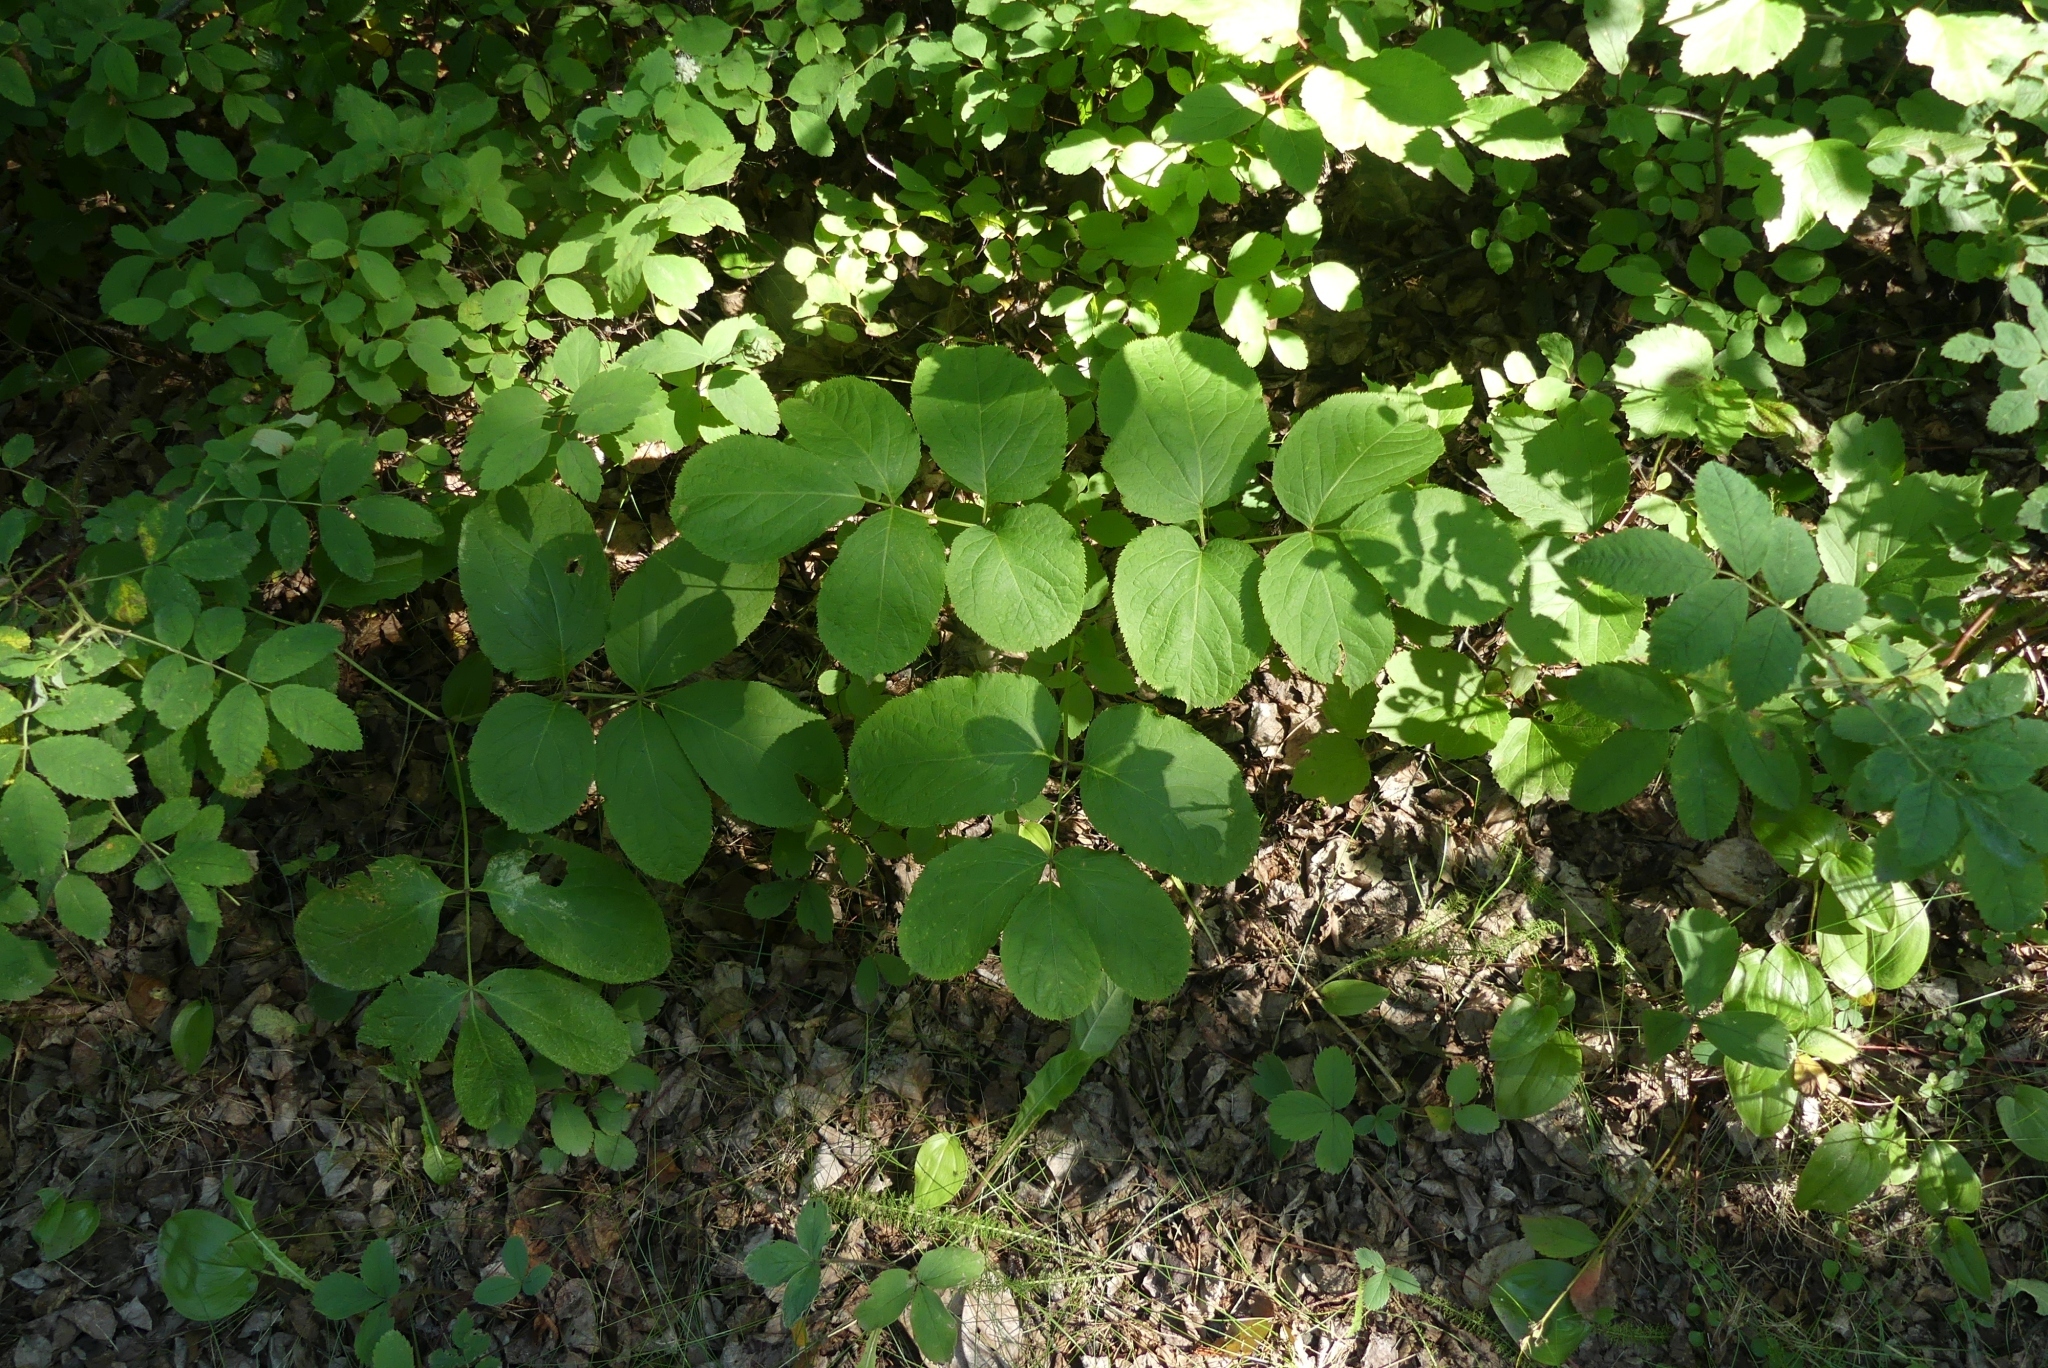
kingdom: Plantae
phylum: Tracheophyta
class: Magnoliopsida
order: Apiales
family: Araliaceae
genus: Aralia
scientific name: Aralia nudicaulis
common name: Wild sarsaparilla
